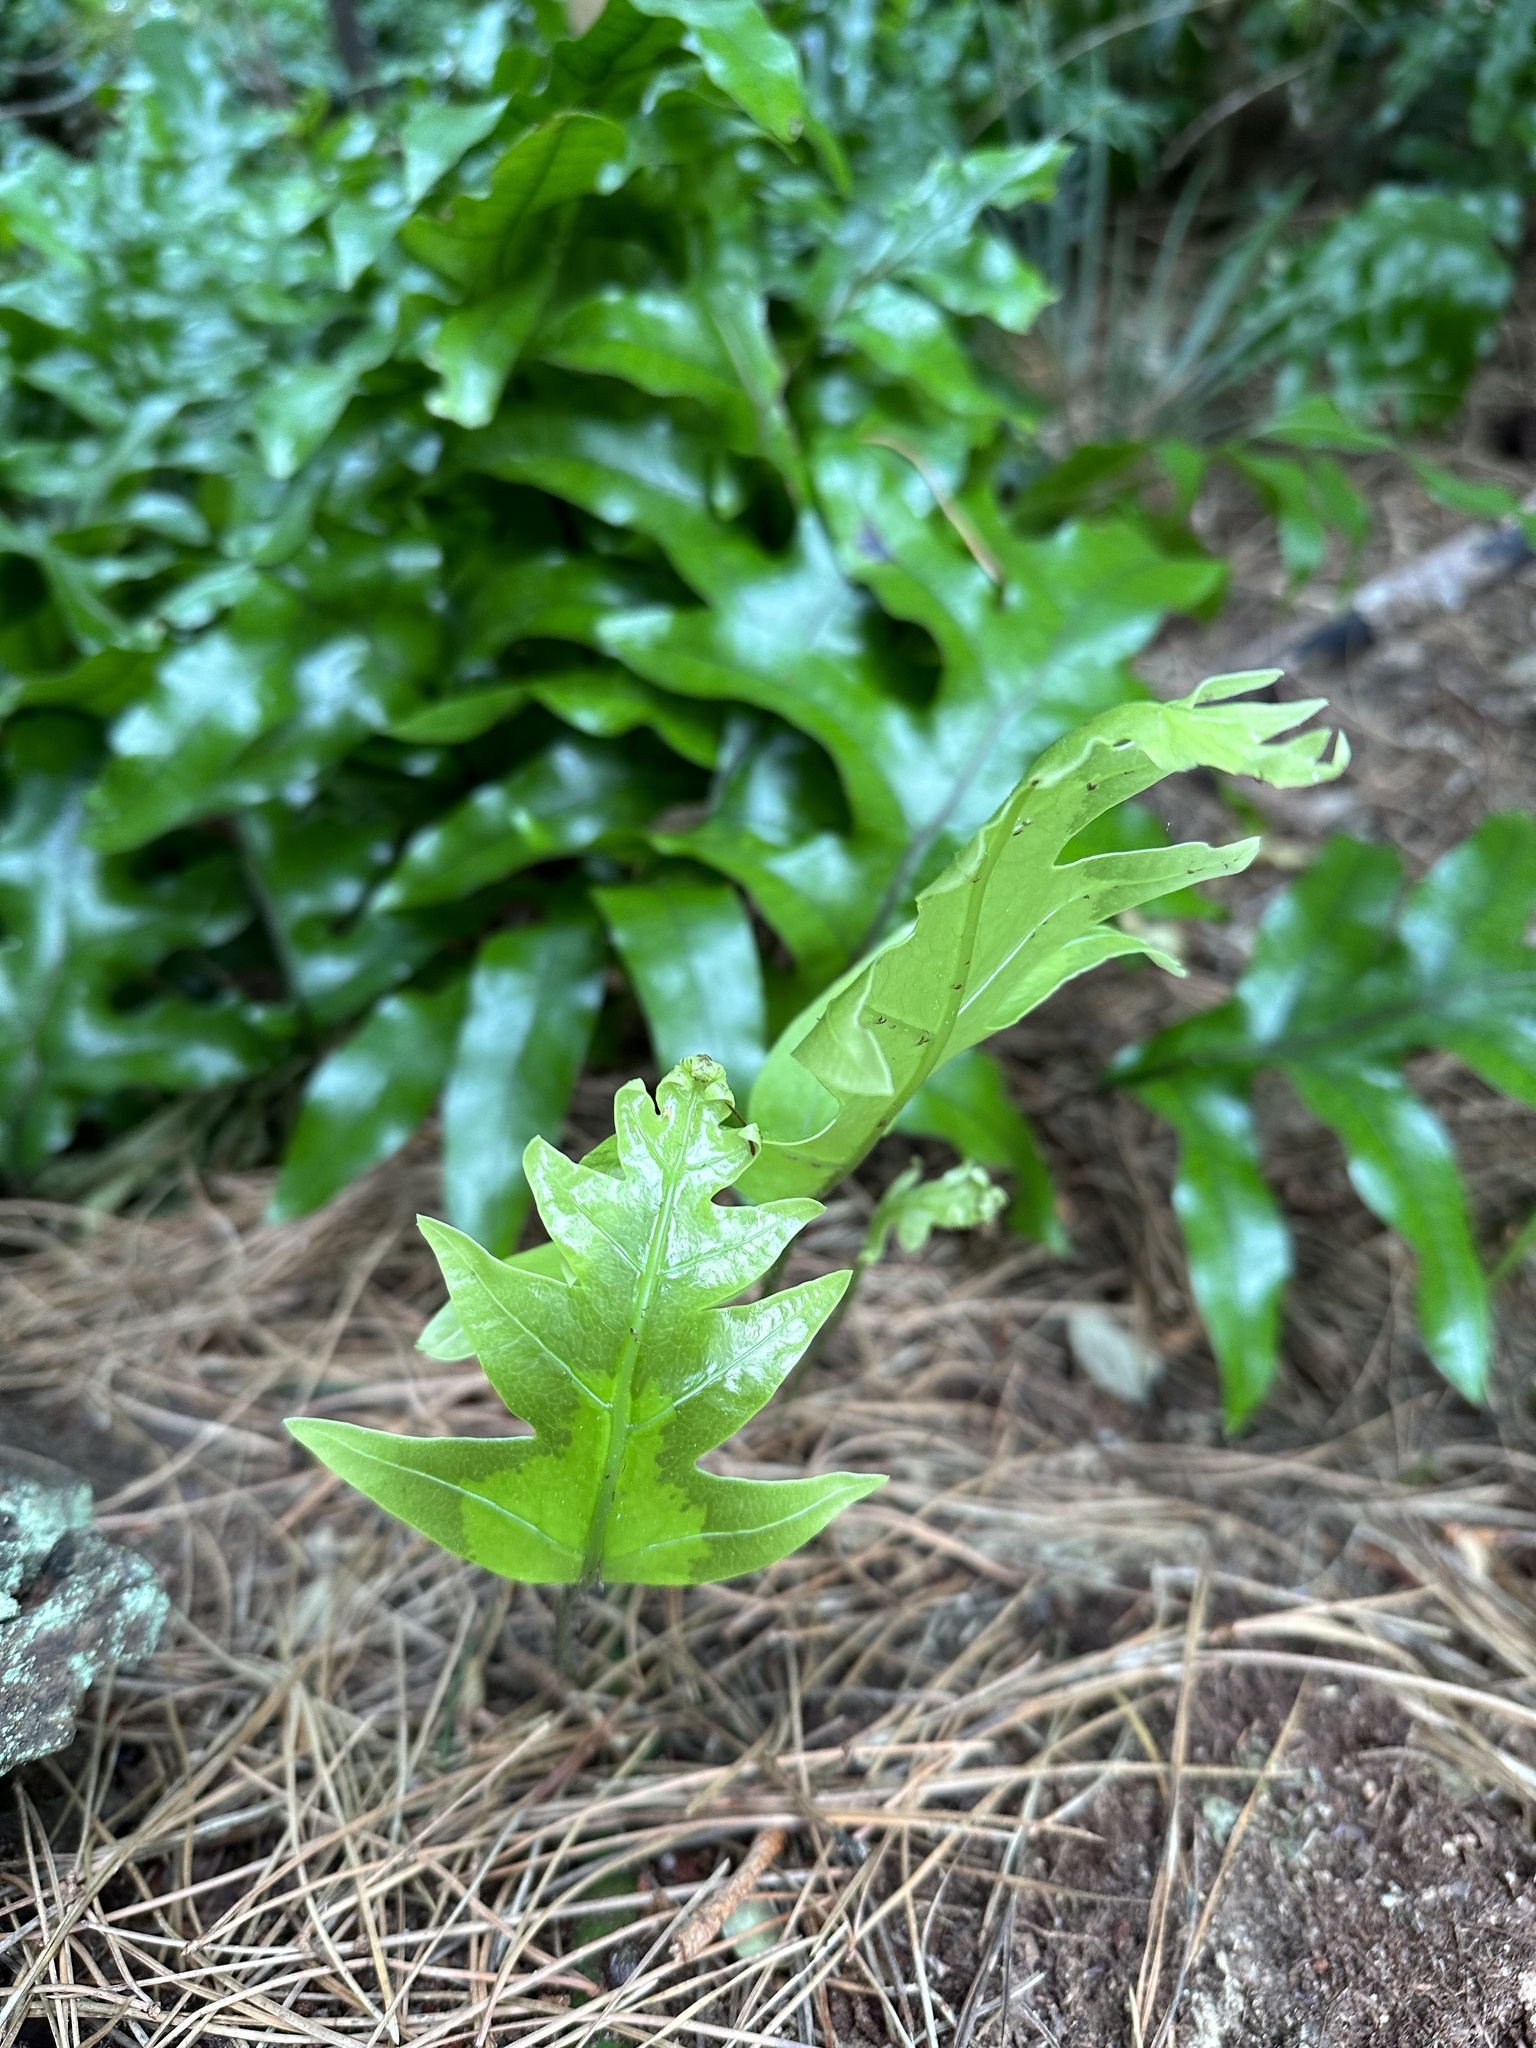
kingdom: Plantae
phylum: Tracheophyta
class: Polypodiopsida
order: Polypodiales
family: Polypodiaceae
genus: Lecanopteris
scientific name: Lecanopteris pustulata
